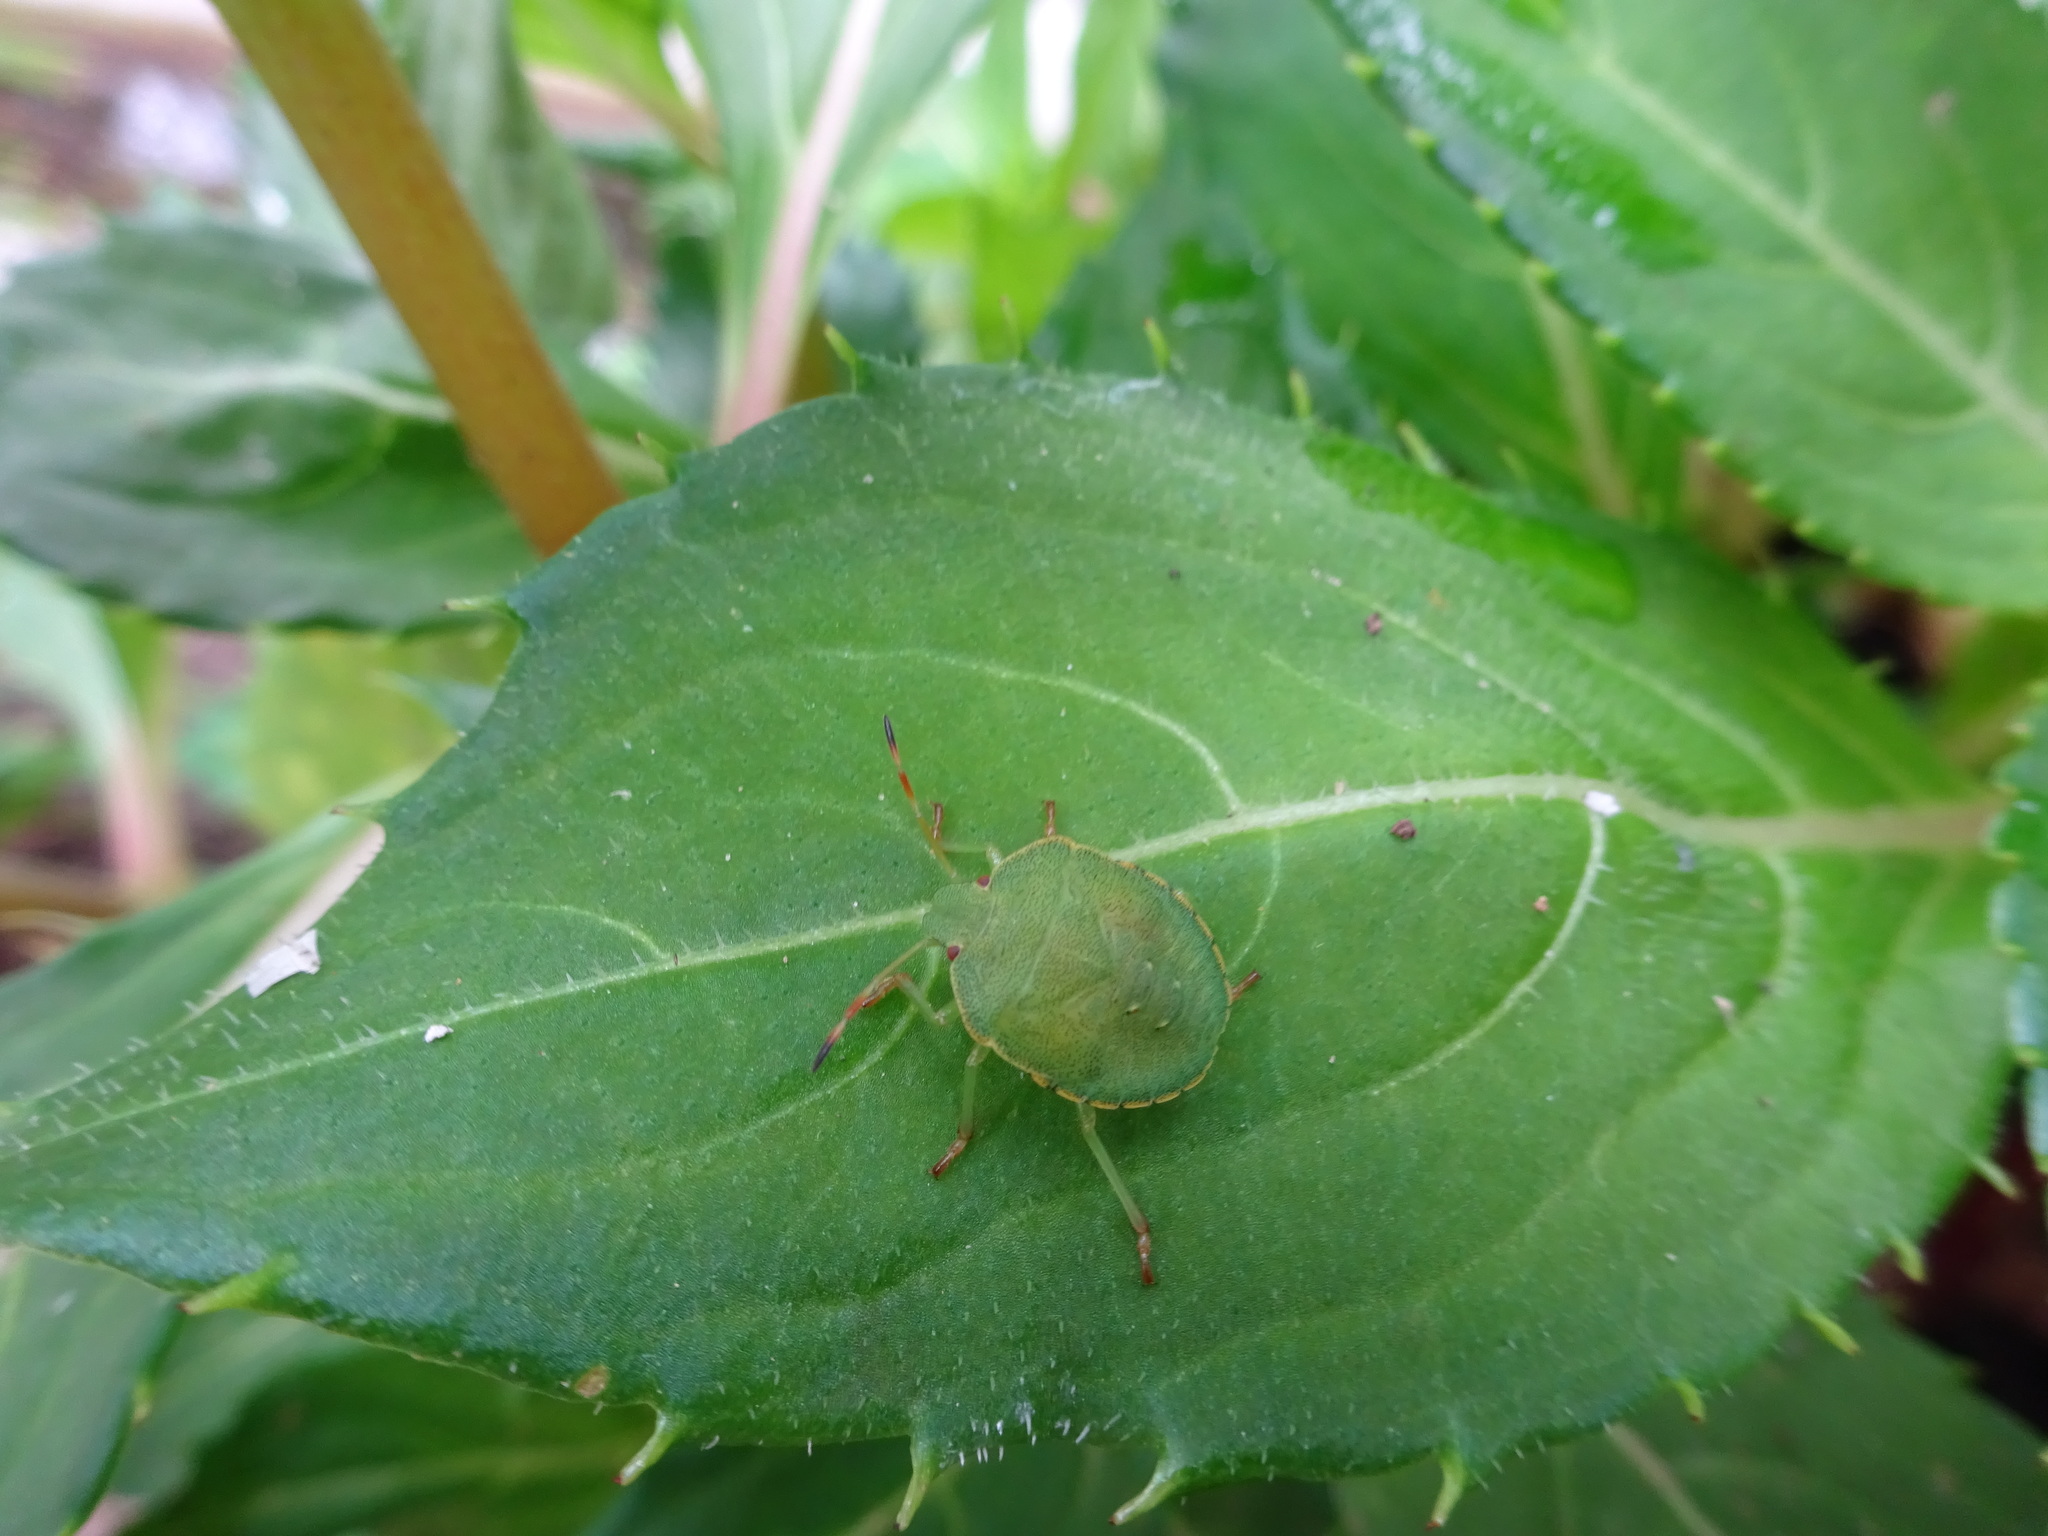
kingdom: Animalia
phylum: Arthropoda
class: Insecta
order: Hemiptera
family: Pentatomidae
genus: Palomena
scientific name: Palomena prasina
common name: Green shieldbug
